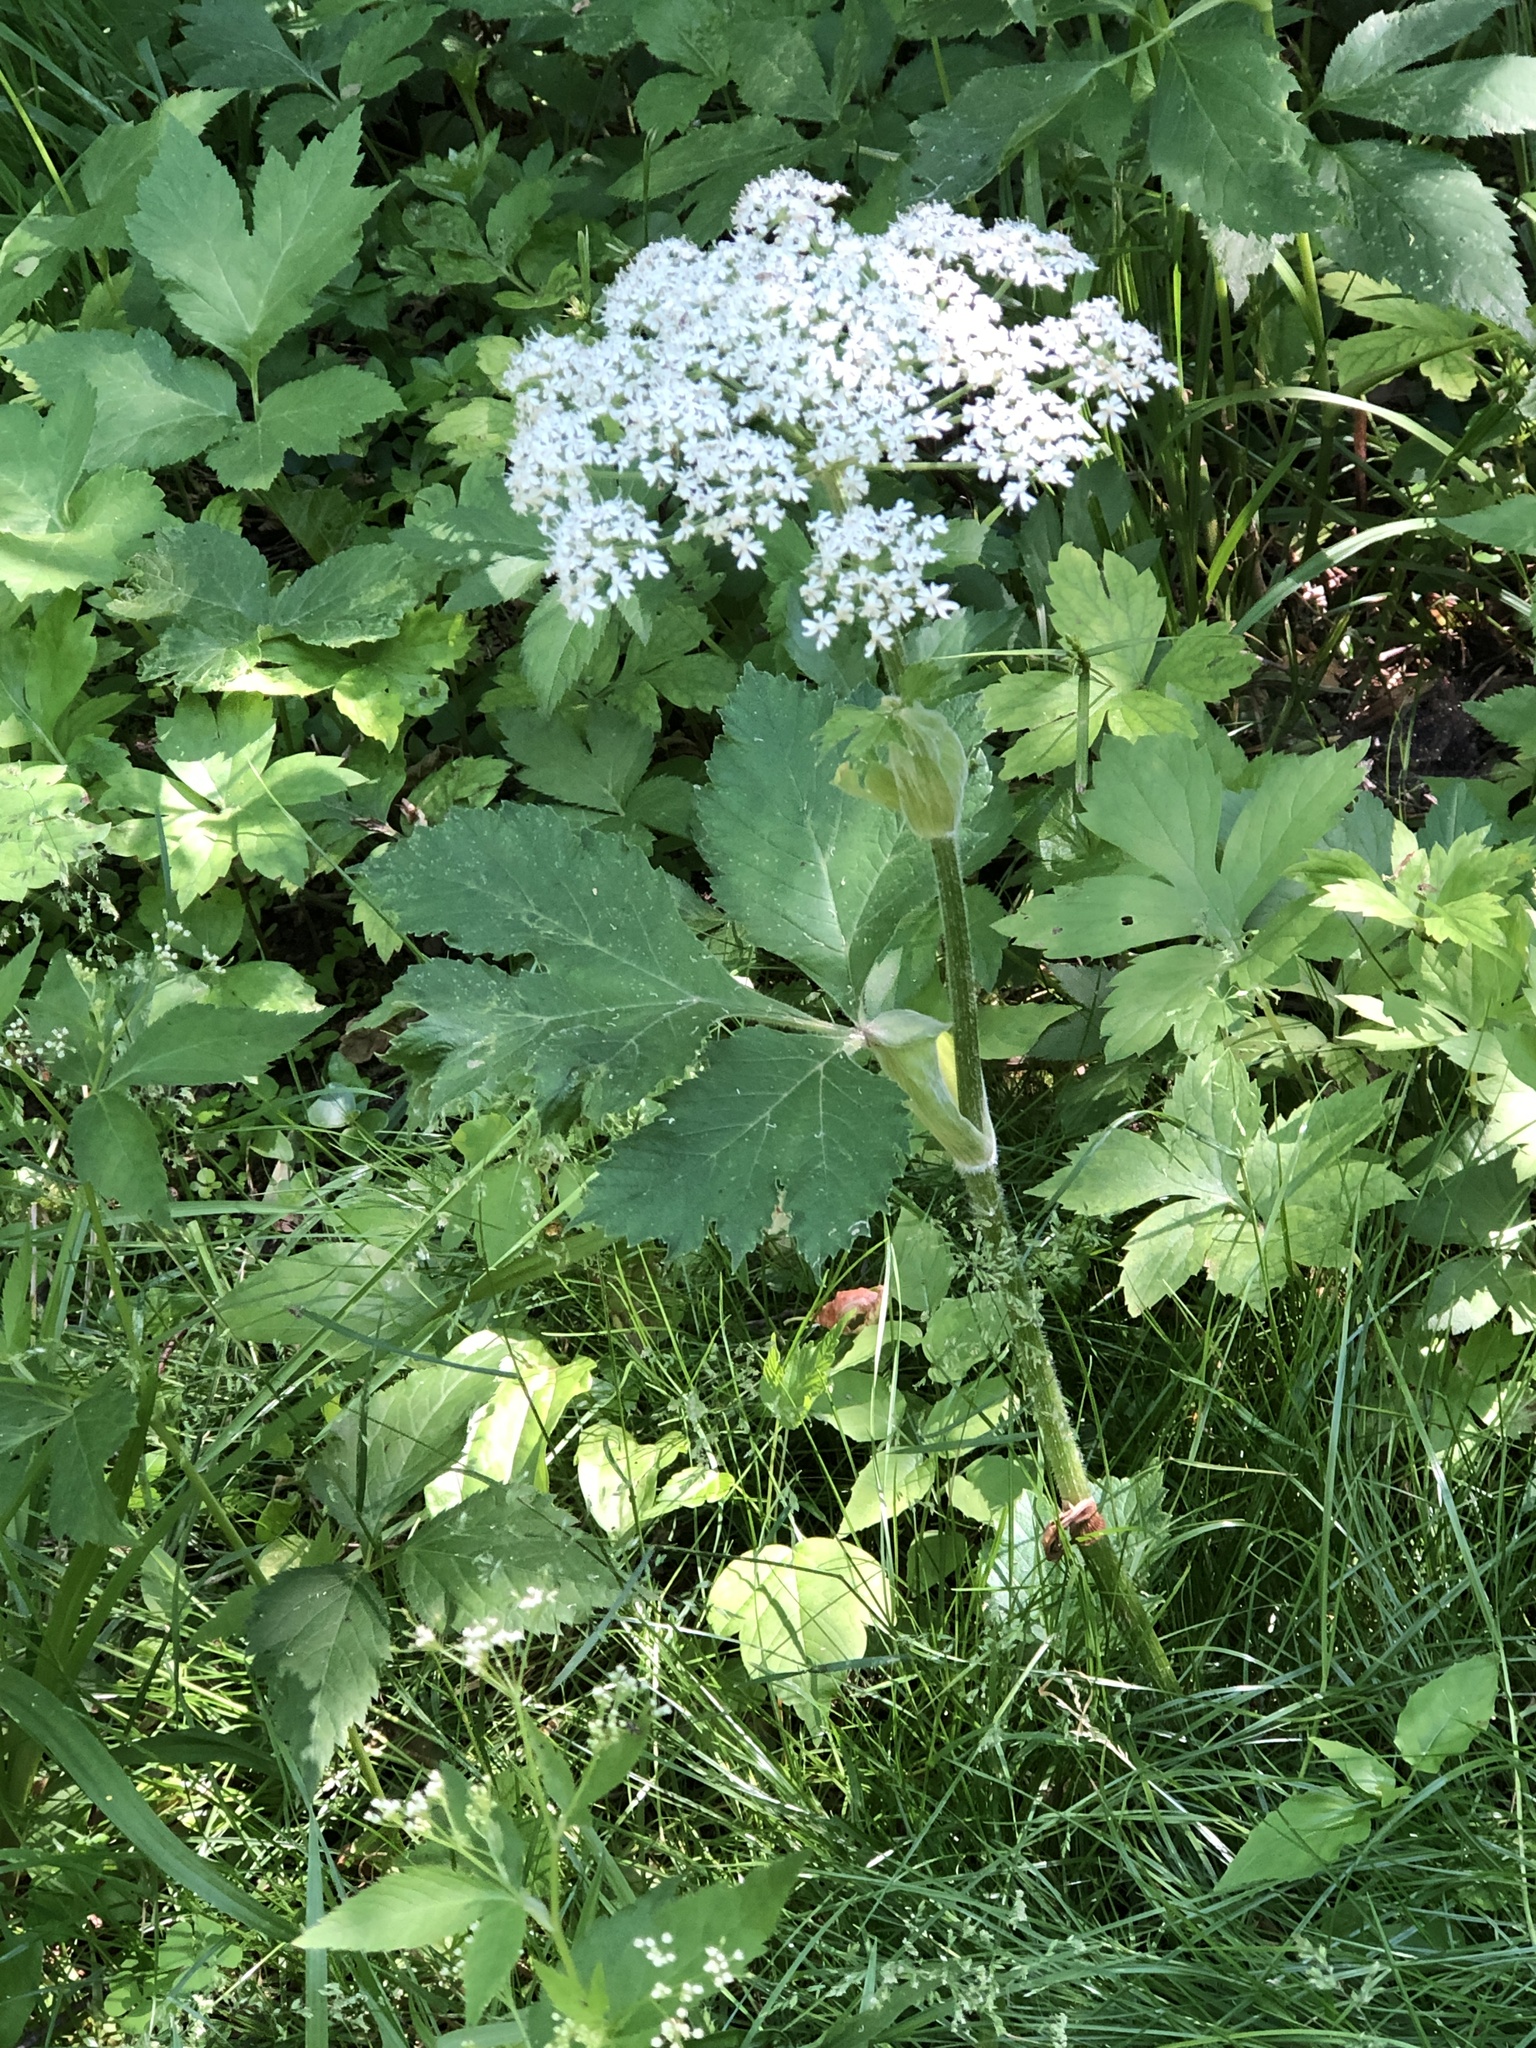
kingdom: Plantae
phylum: Tracheophyta
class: Magnoliopsida
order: Apiales
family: Apiaceae
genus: Heracleum
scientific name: Heracleum maximum
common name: American cow parsnip
